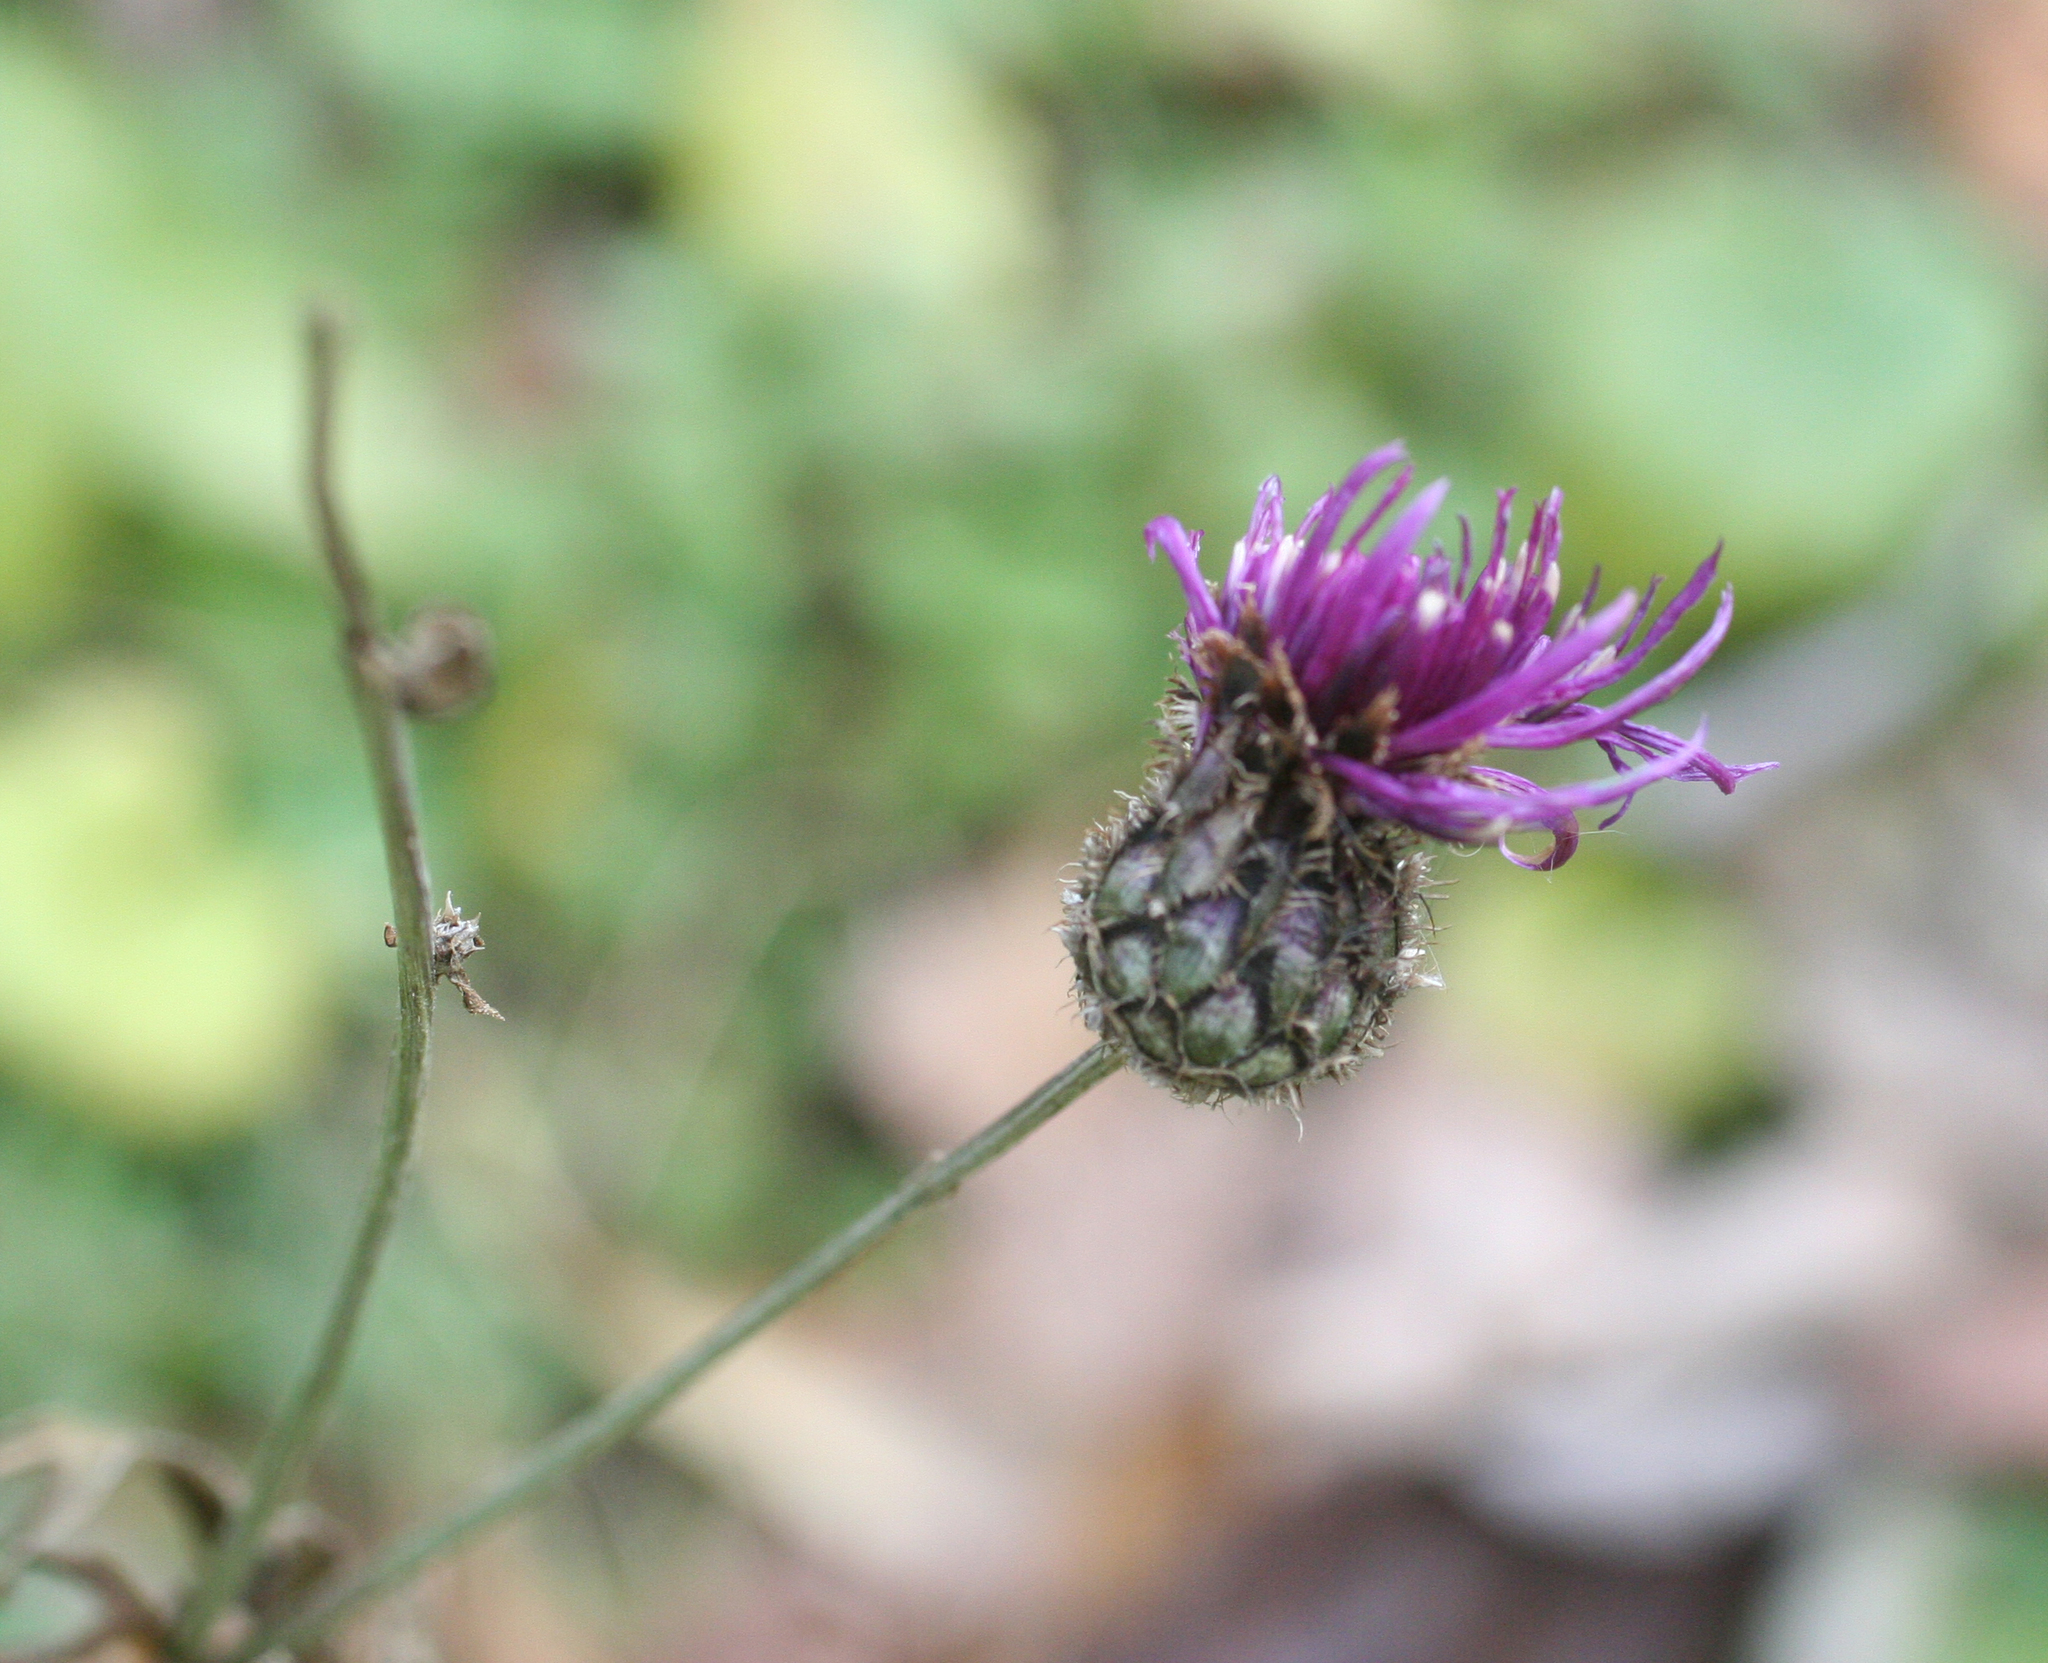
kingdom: Plantae
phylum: Tracheophyta
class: Magnoliopsida
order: Asterales
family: Asteraceae
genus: Centaurea
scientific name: Centaurea scabiosa
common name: Greater knapweed
